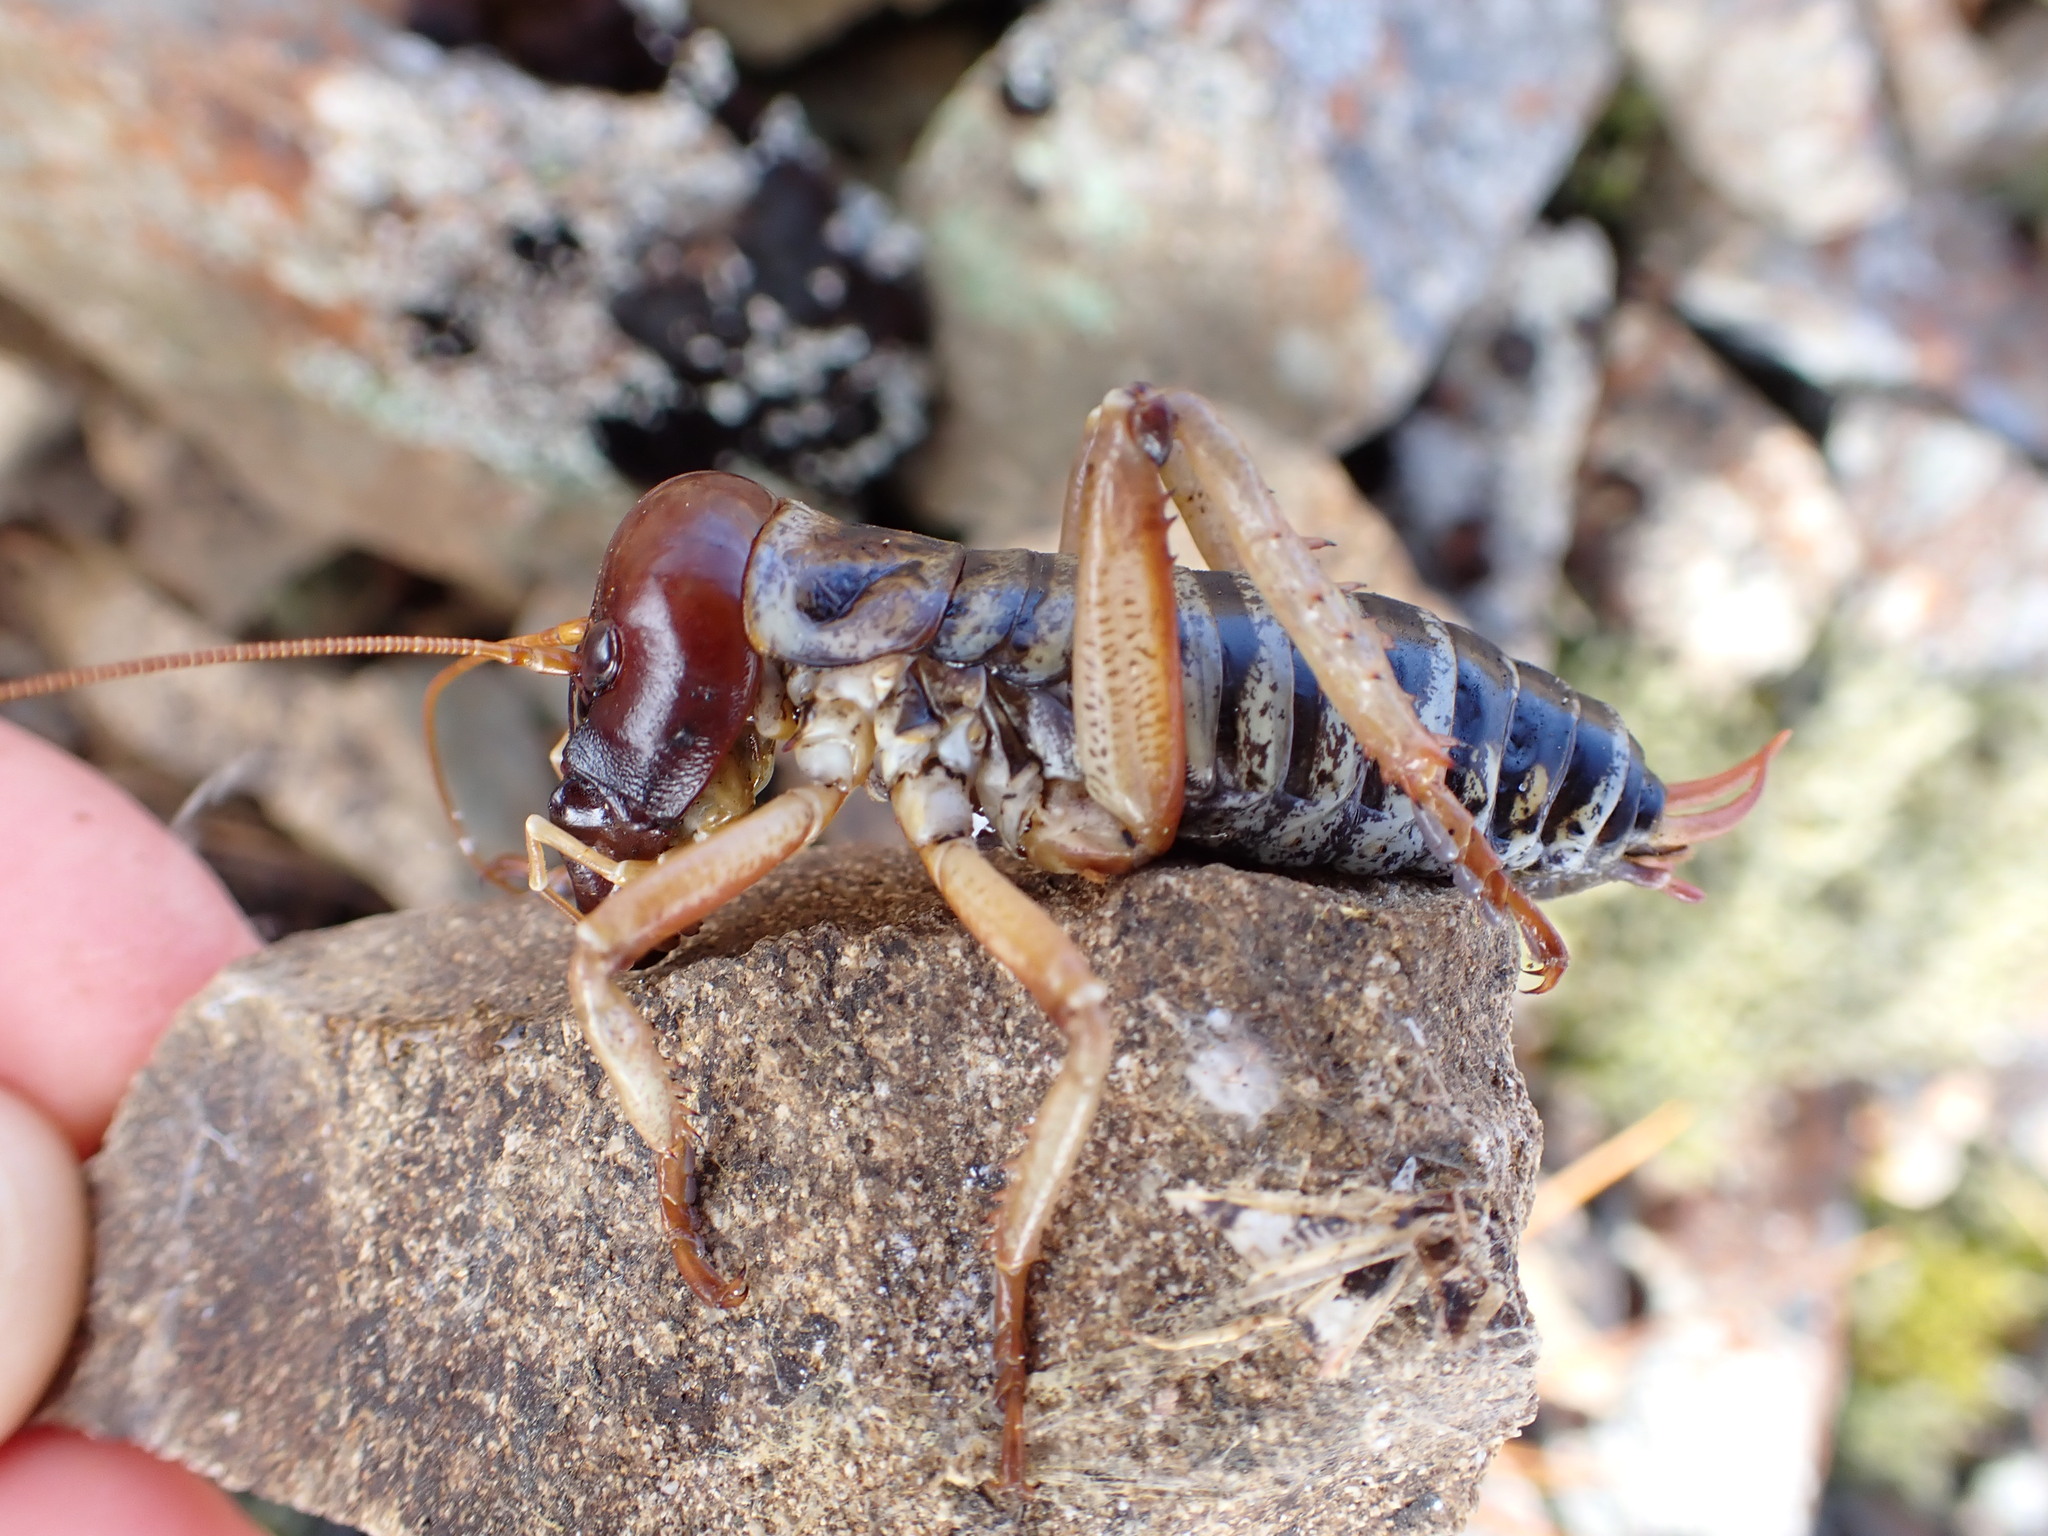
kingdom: Animalia
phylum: Arthropoda
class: Insecta
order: Orthoptera
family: Anostostomatidae
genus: Hemideina
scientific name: Hemideina maori
